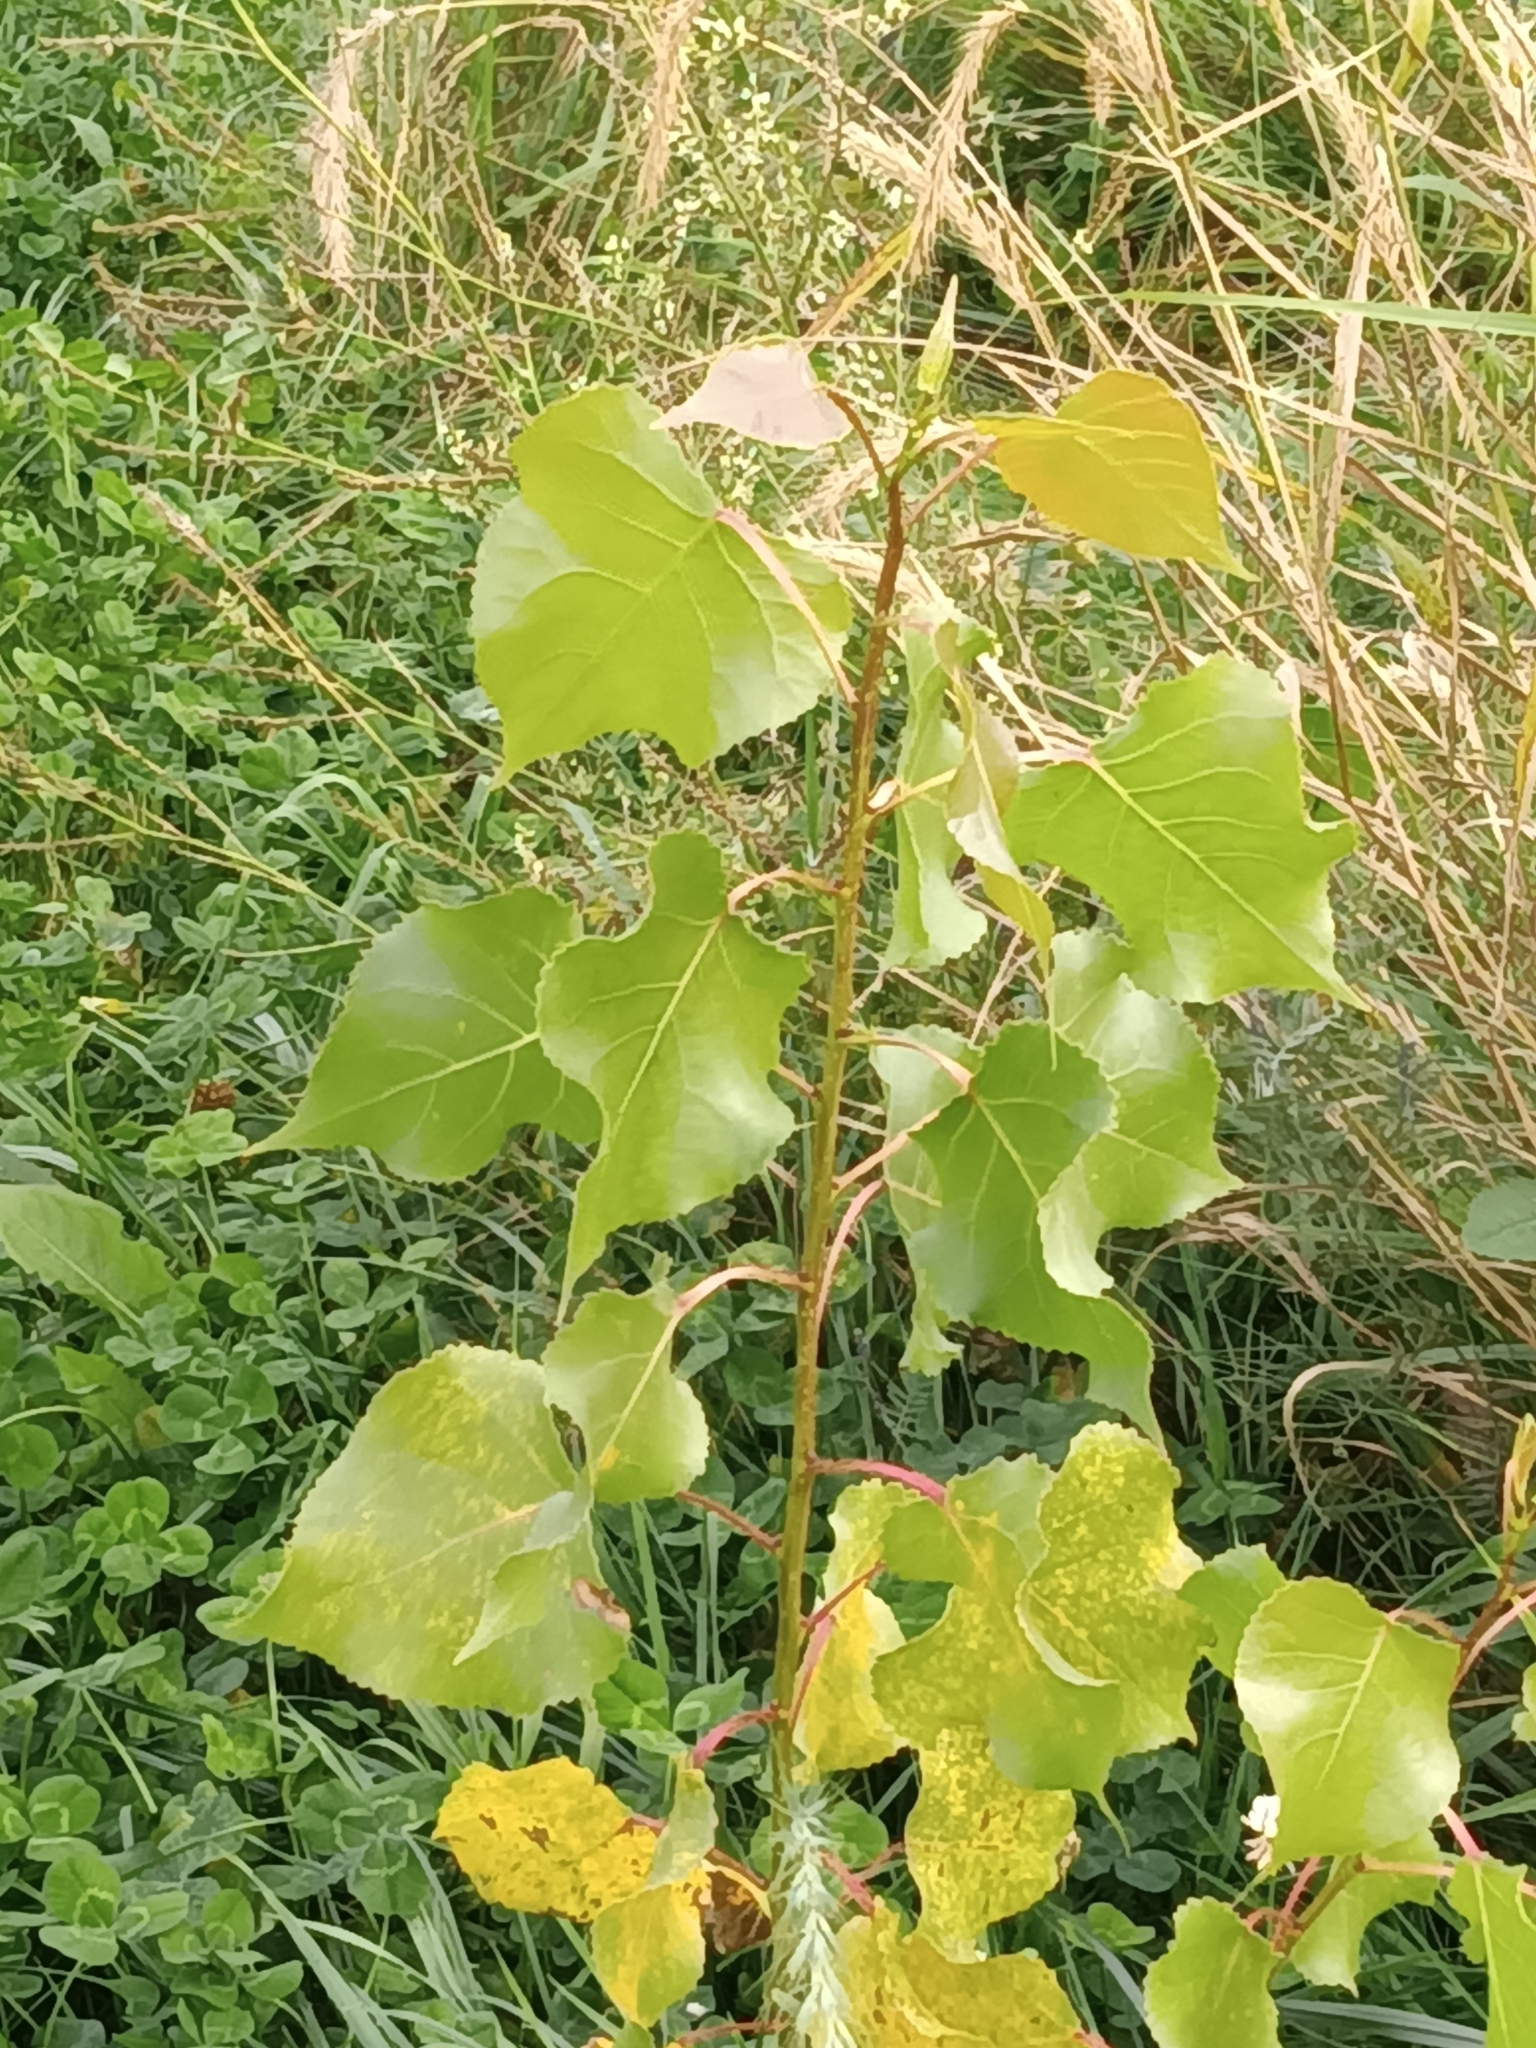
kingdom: Plantae
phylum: Tracheophyta
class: Magnoliopsida
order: Malpighiales
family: Salicaceae
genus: Populus
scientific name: Populus deltoides
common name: Eastern cottonwood
